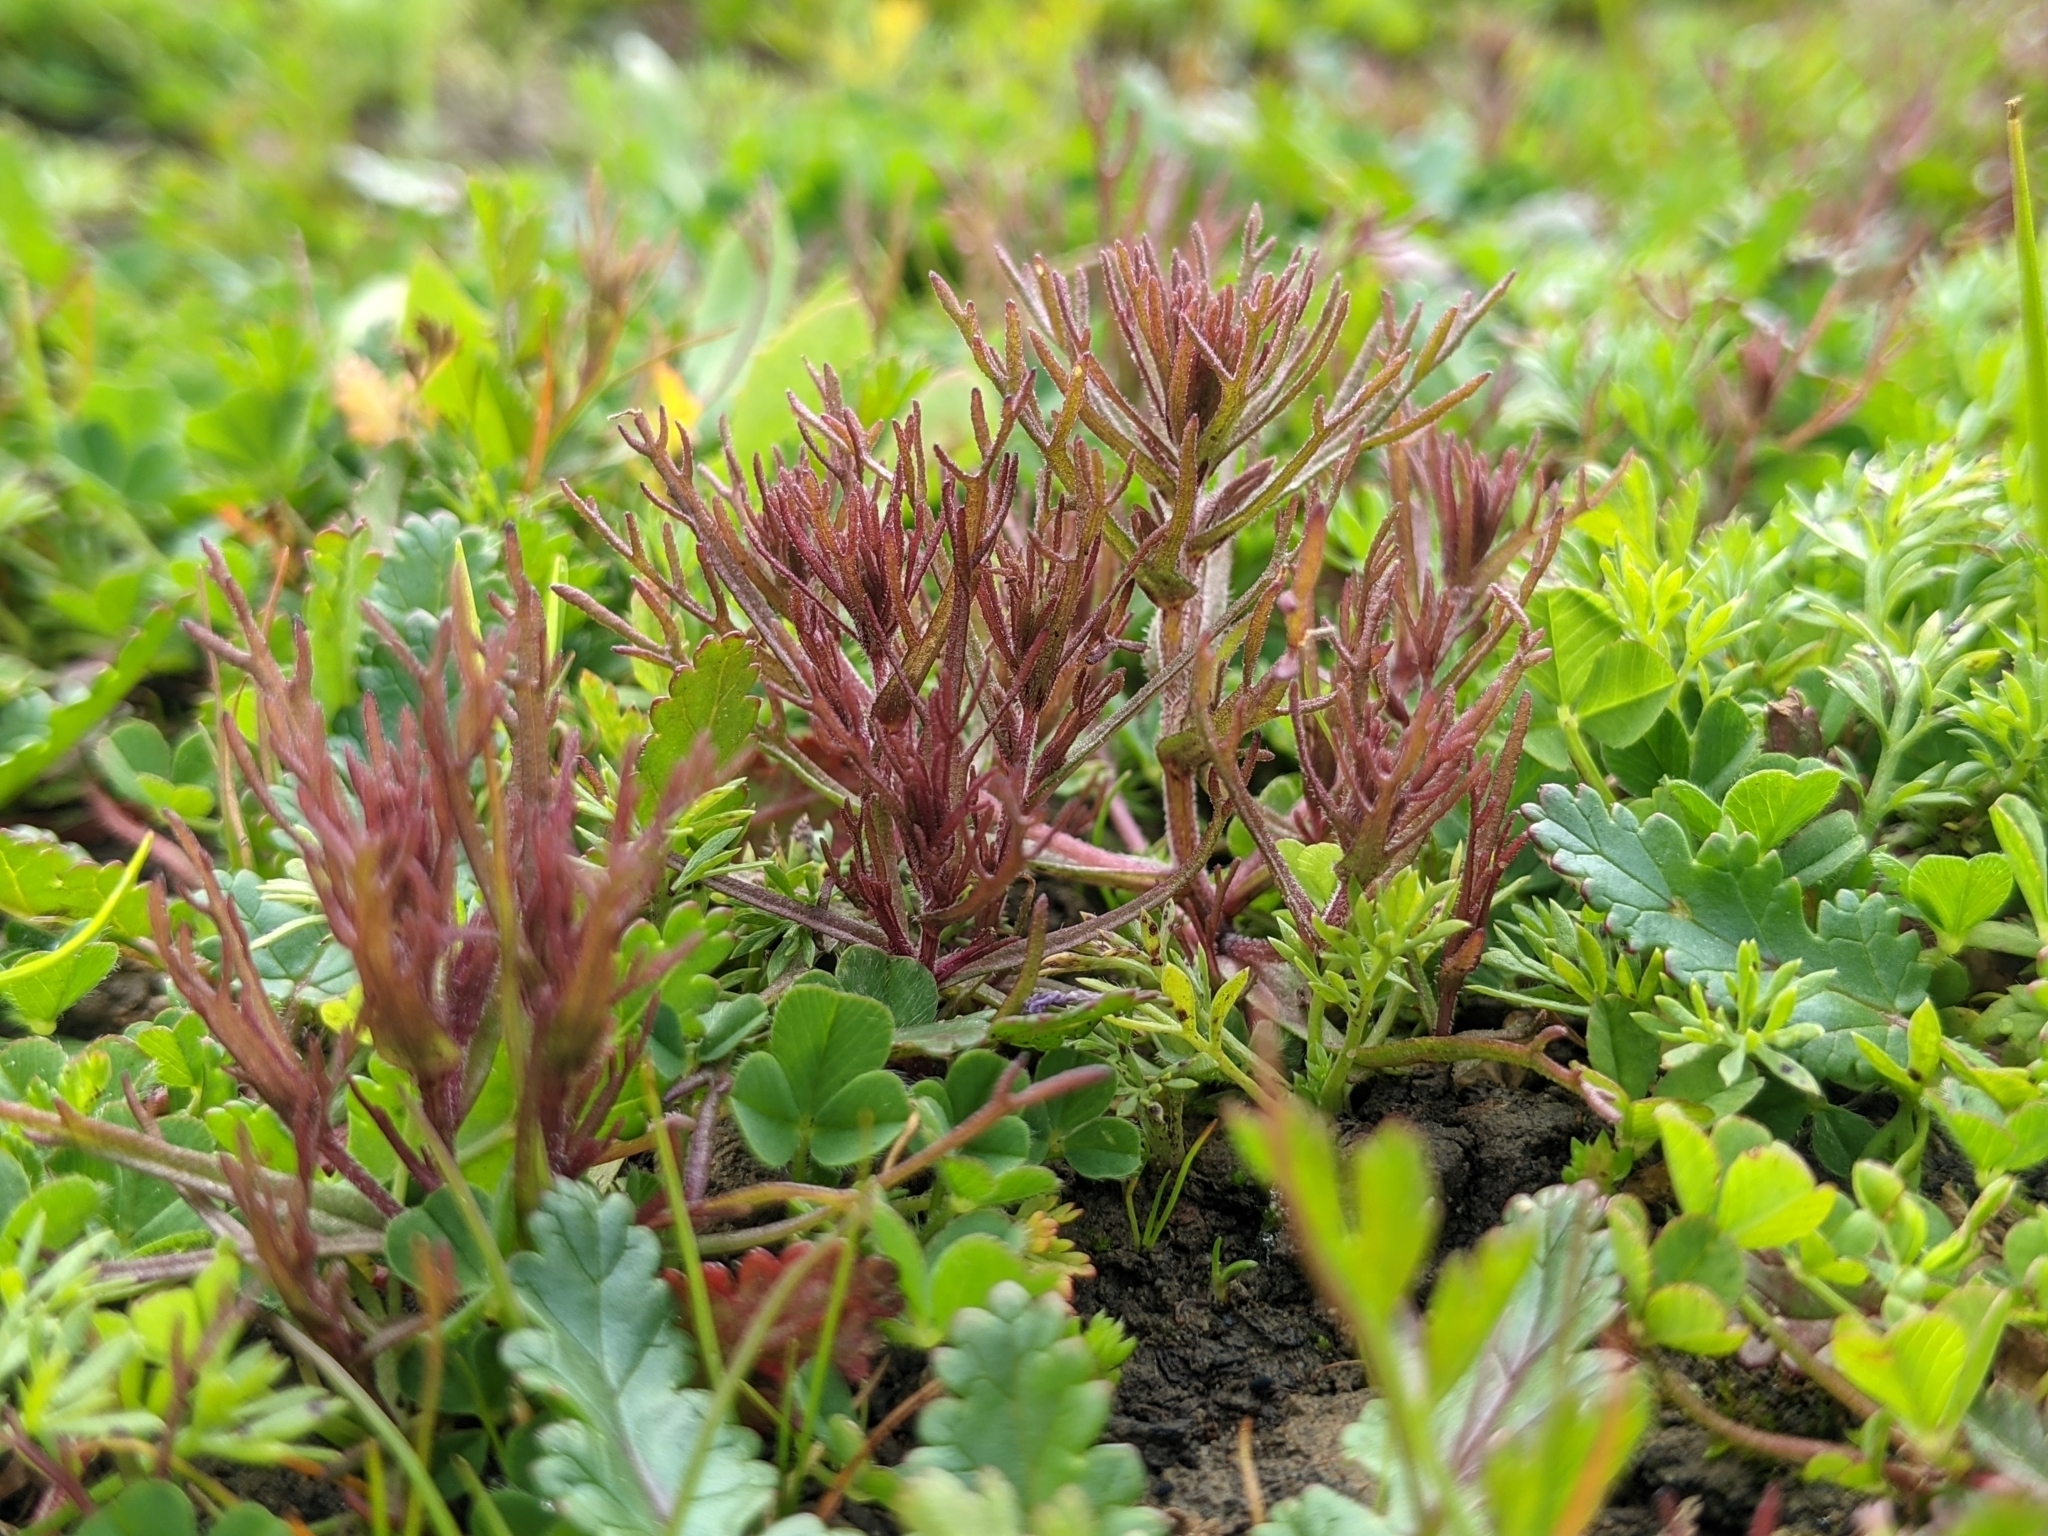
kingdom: Plantae
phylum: Tracheophyta
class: Magnoliopsida
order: Lamiales
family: Orobanchaceae
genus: Triphysaria
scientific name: Triphysaria pusilla
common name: Dwarf false owl-clover
